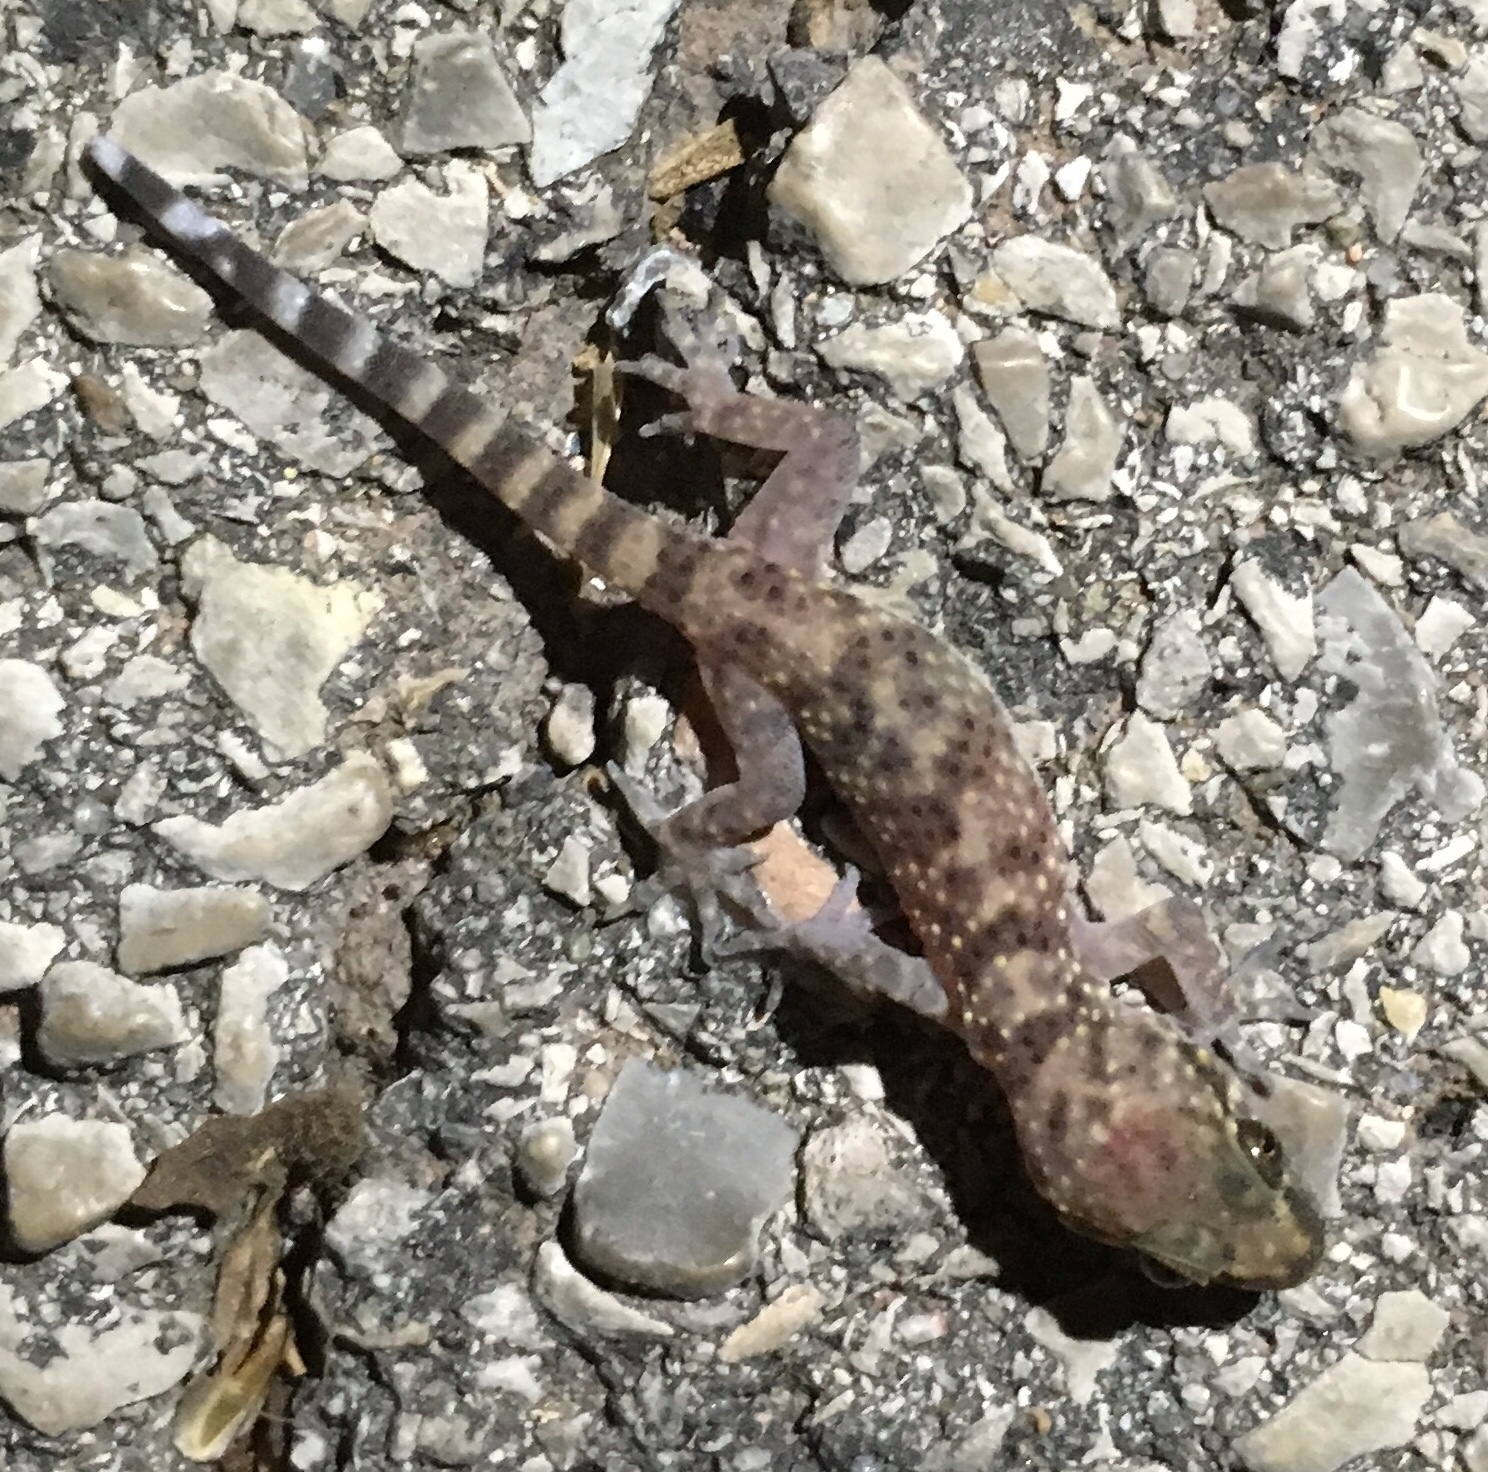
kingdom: Animalia
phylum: Chordata
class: Squamata
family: Gekkonidae
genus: Hemidactylus
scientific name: Hemidactylus turcicus
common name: Turkish gecko
